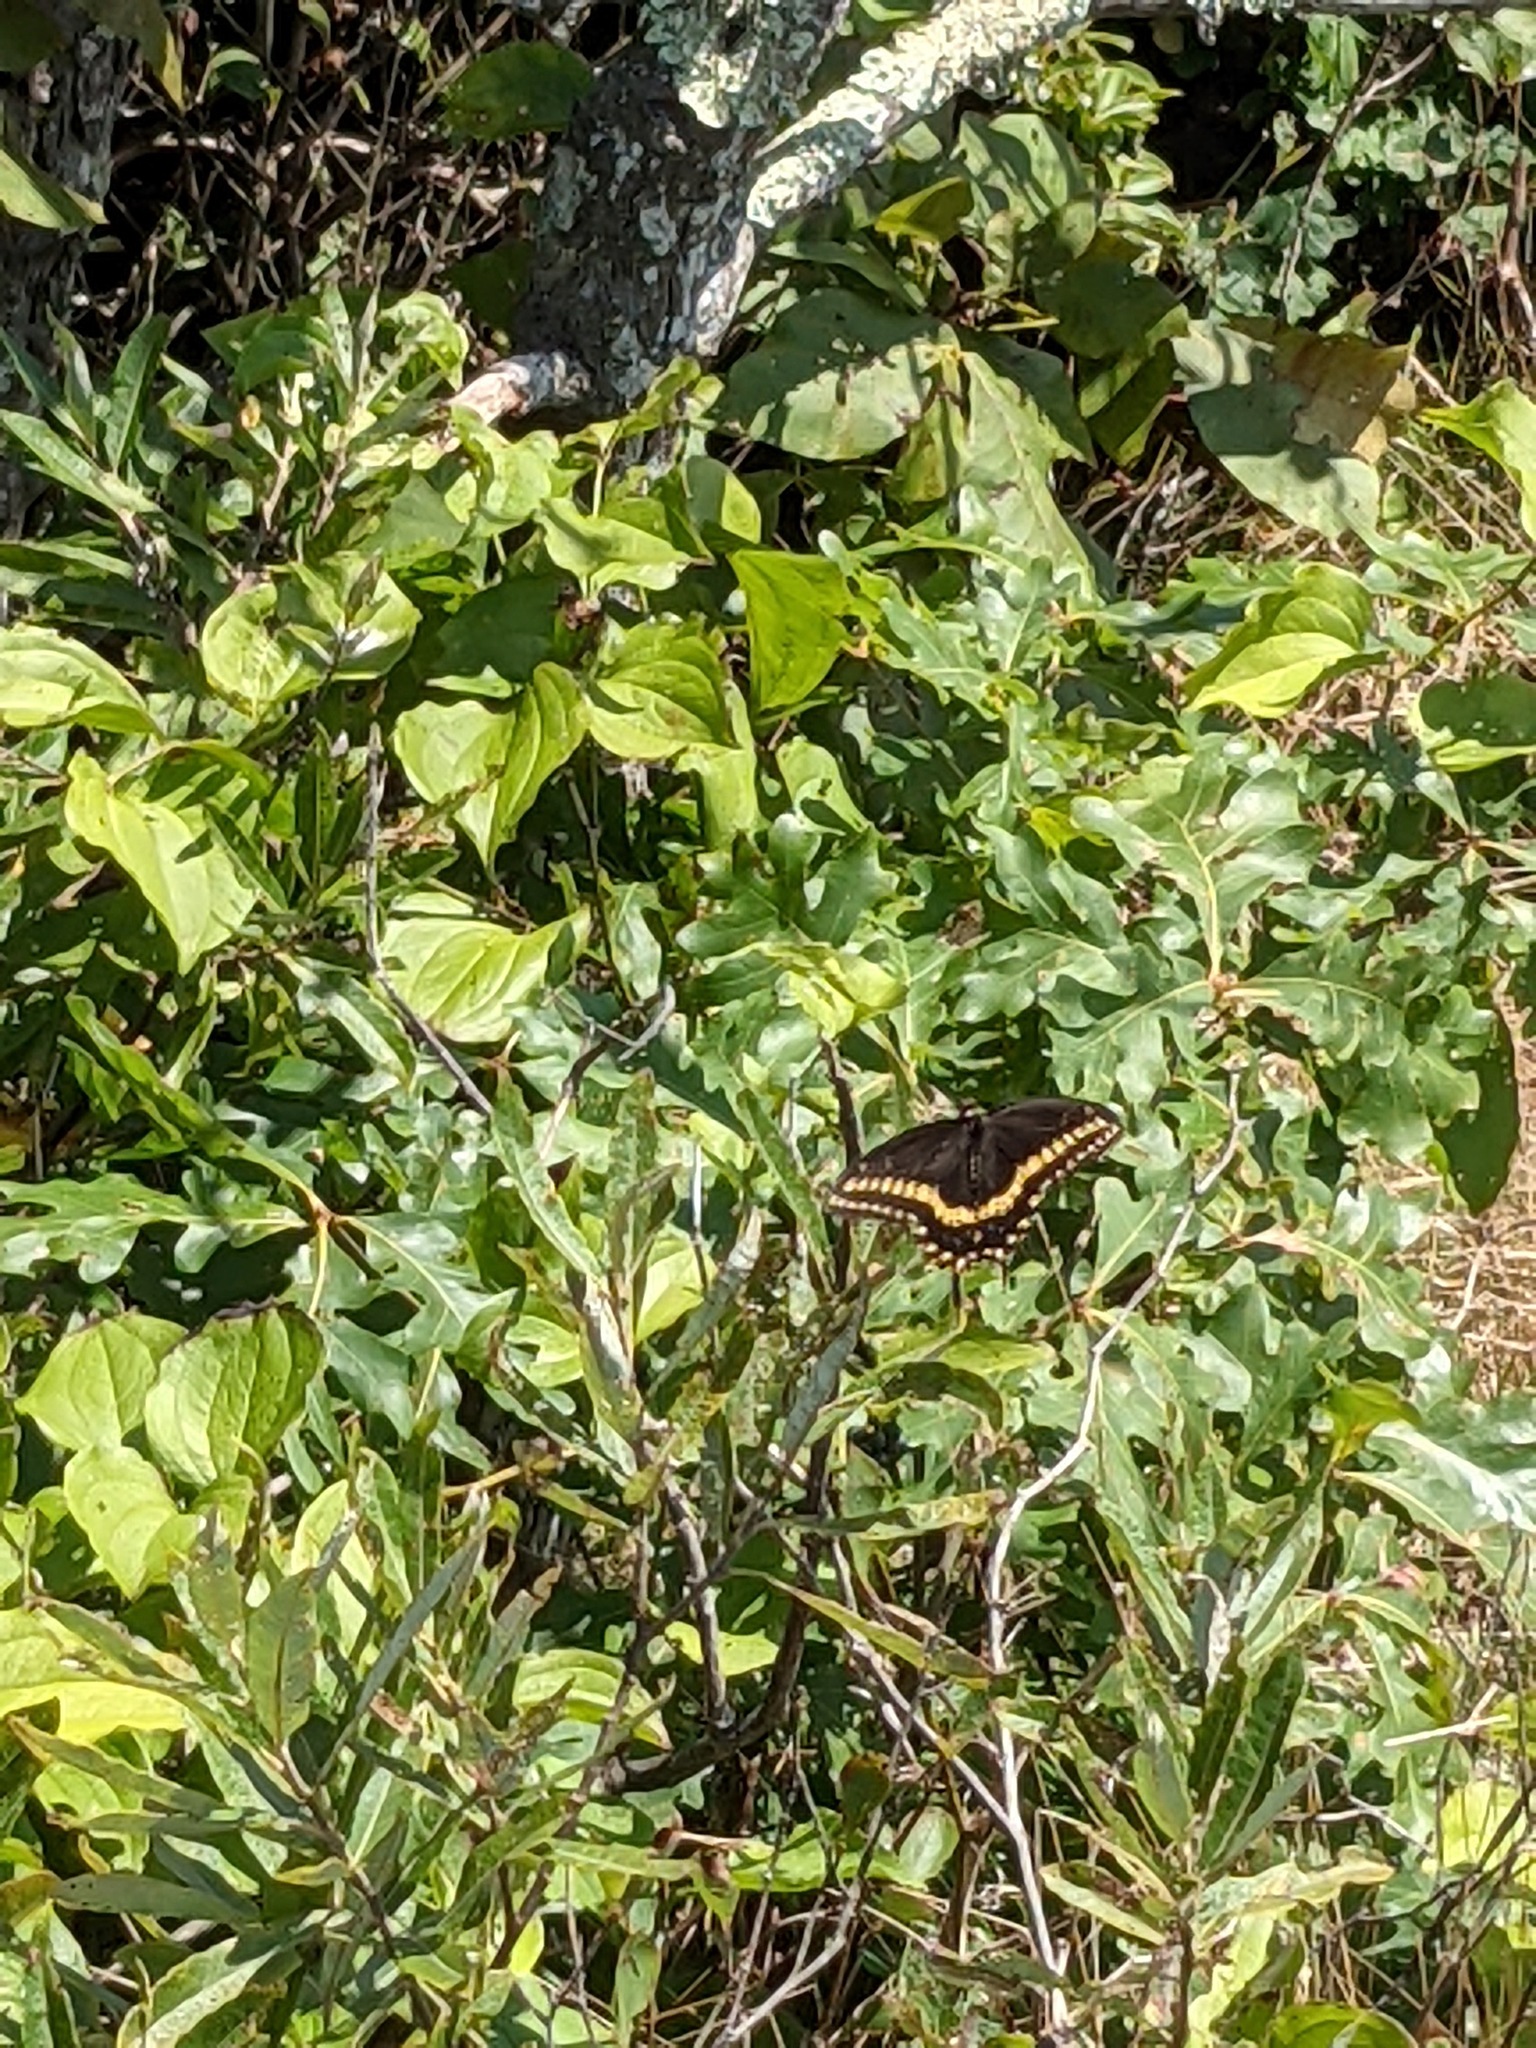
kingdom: Animalia
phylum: Arthropoda
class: Insecta
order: Lepidoptera
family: Papilionidae
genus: Papilio
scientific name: Papilio polyxenes
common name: Black swallowtail
